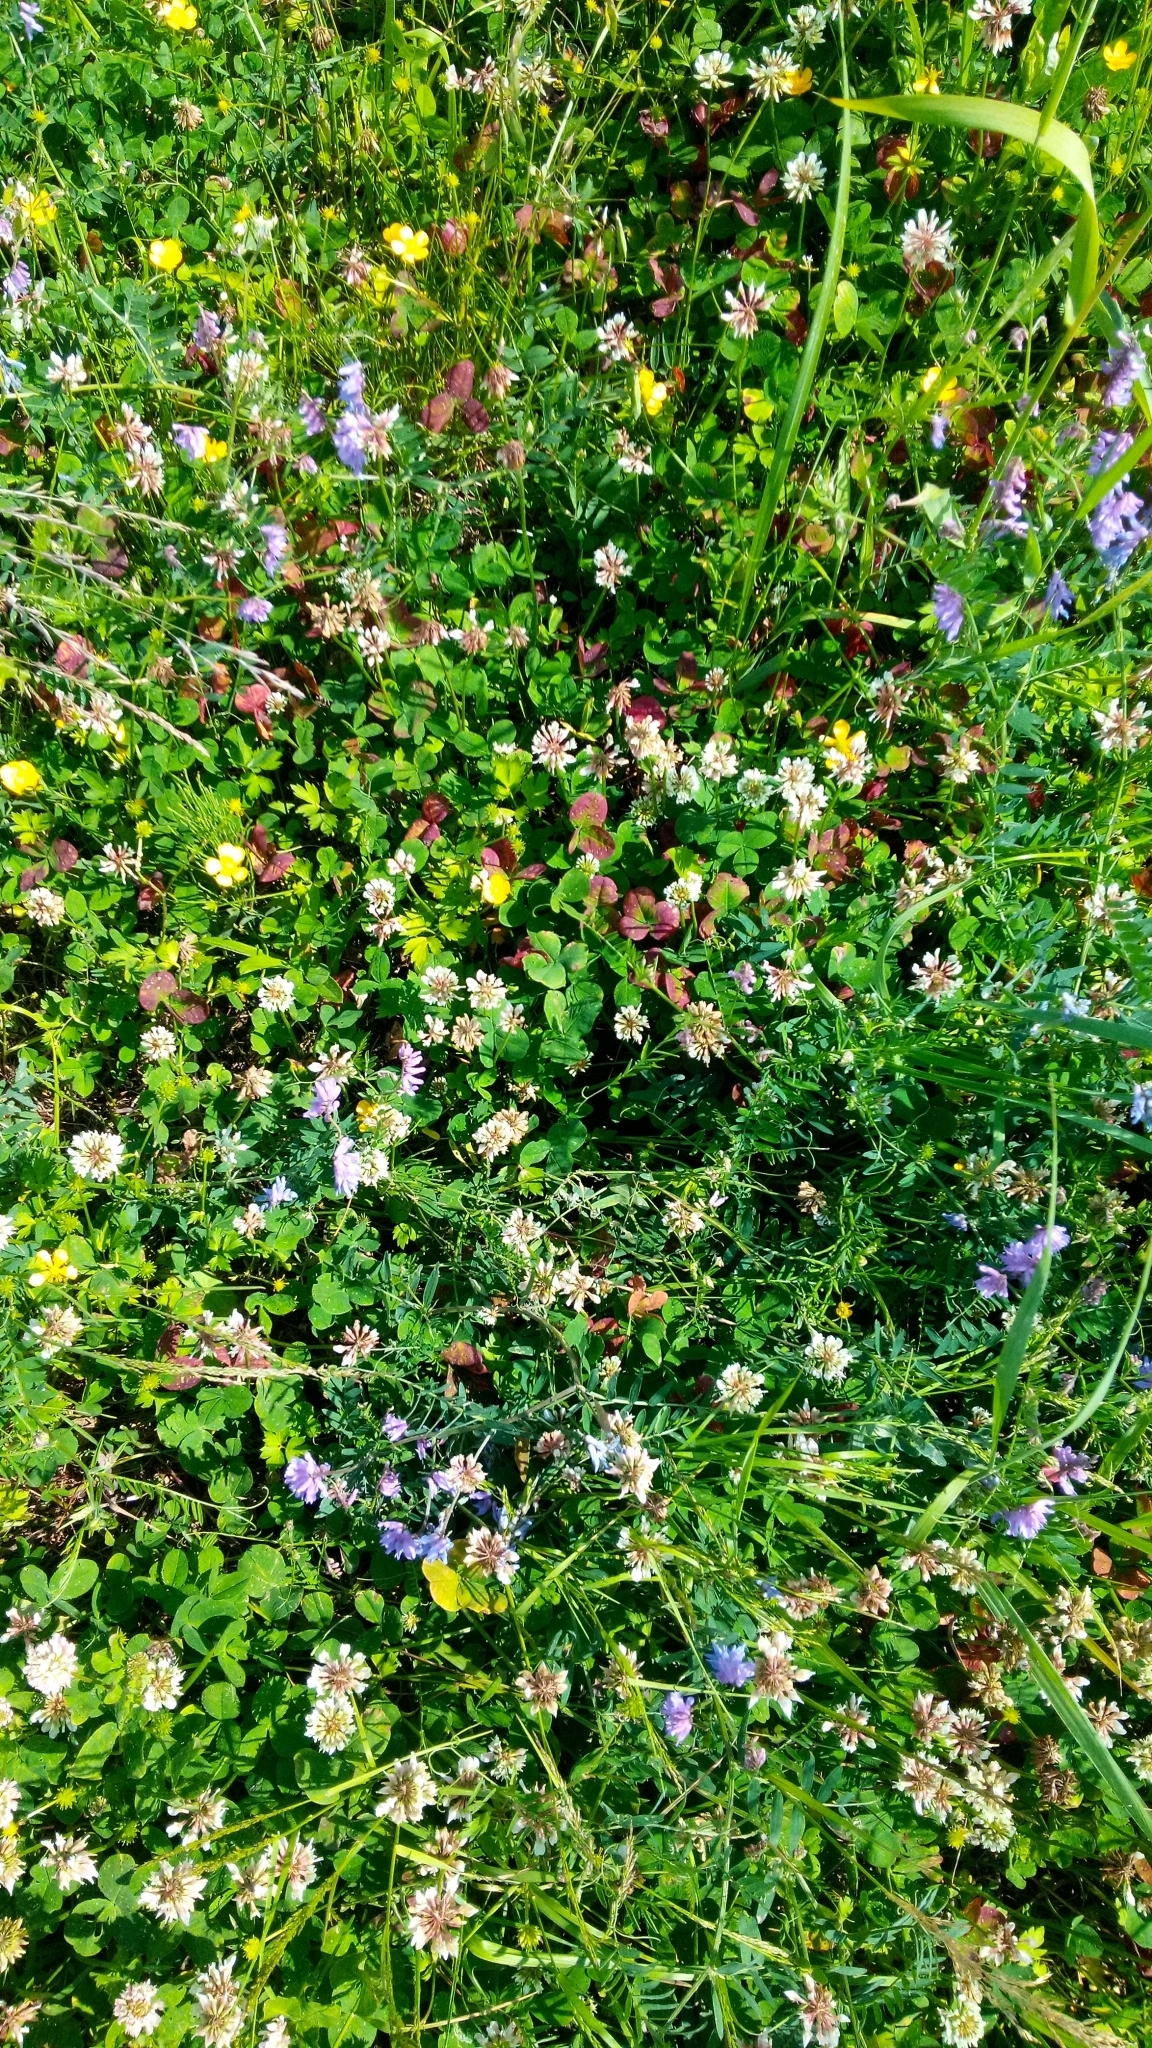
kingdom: Plantae
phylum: Tracheophyta
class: Magnoliopsida
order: Fabales
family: Fabaceae
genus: Trifolium
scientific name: Trifolium repens
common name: White clover
